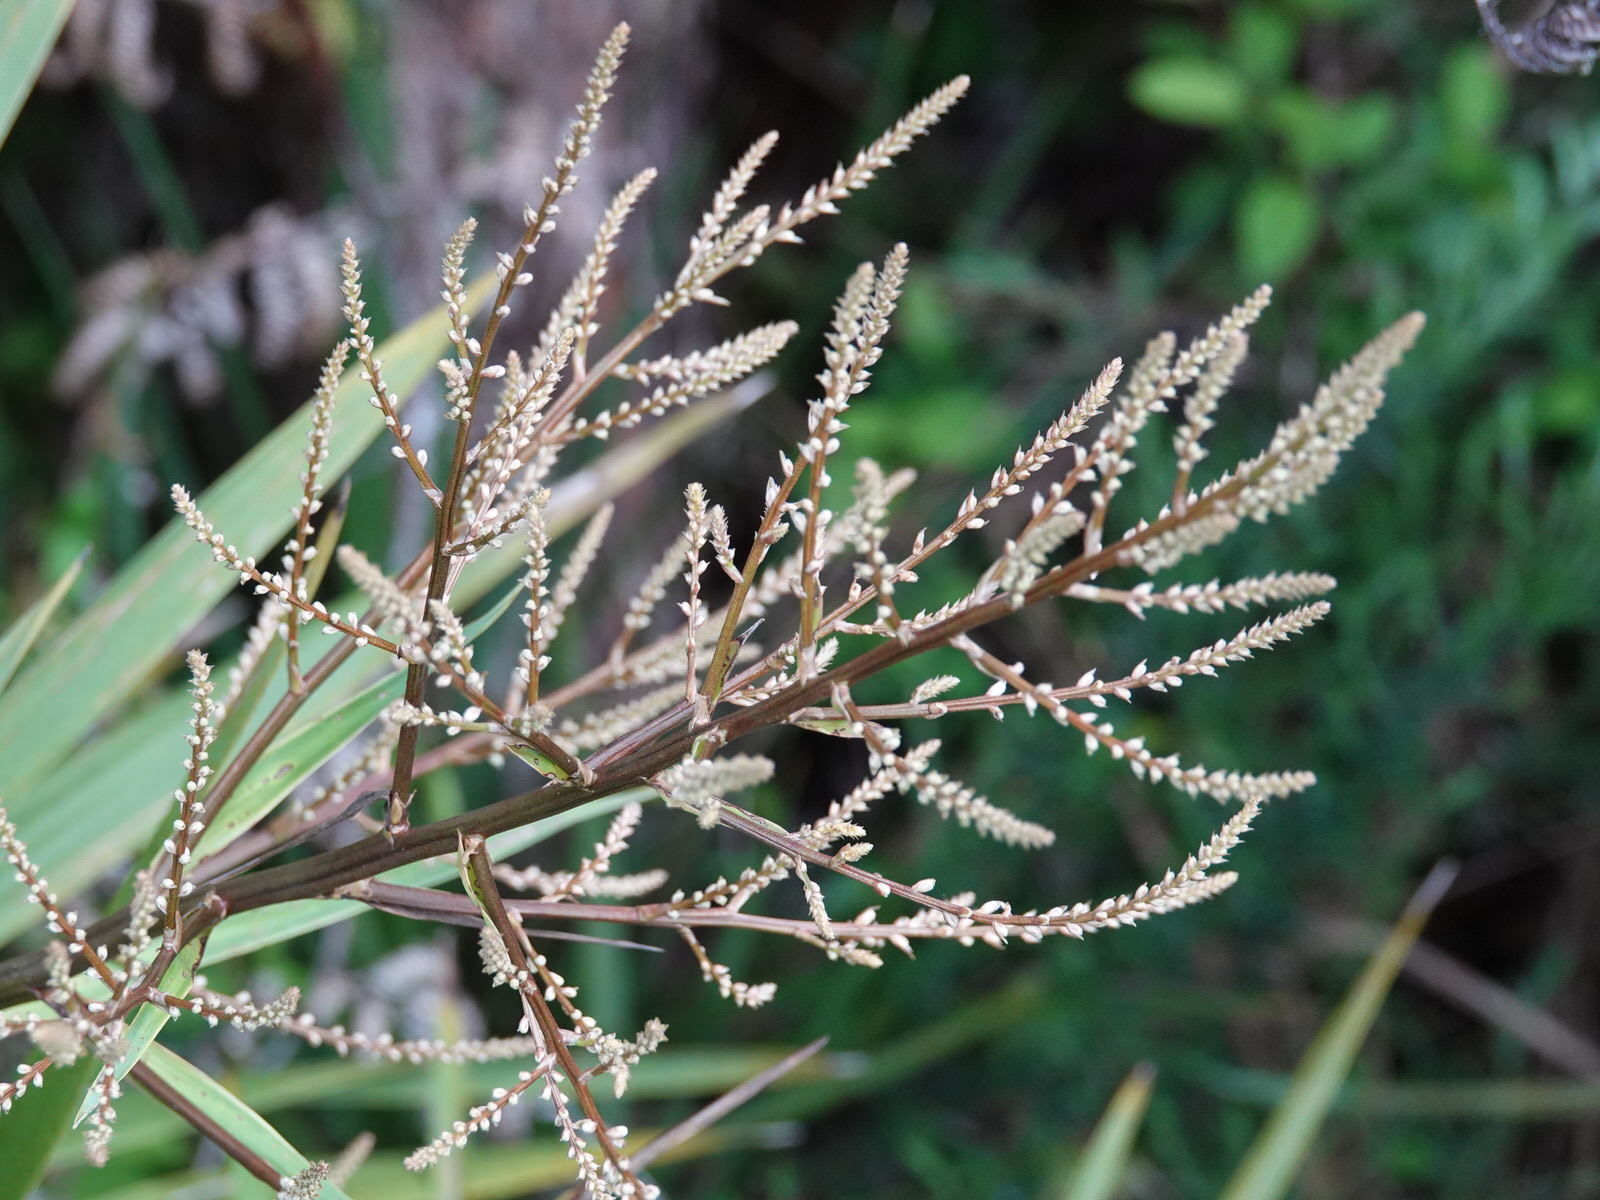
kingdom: Plantae
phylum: Tracheophyta
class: Liliopsida
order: Asparagales
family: Asparagaceae
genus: Cordyline
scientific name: Cordyline australis
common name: Cabbage-palm
